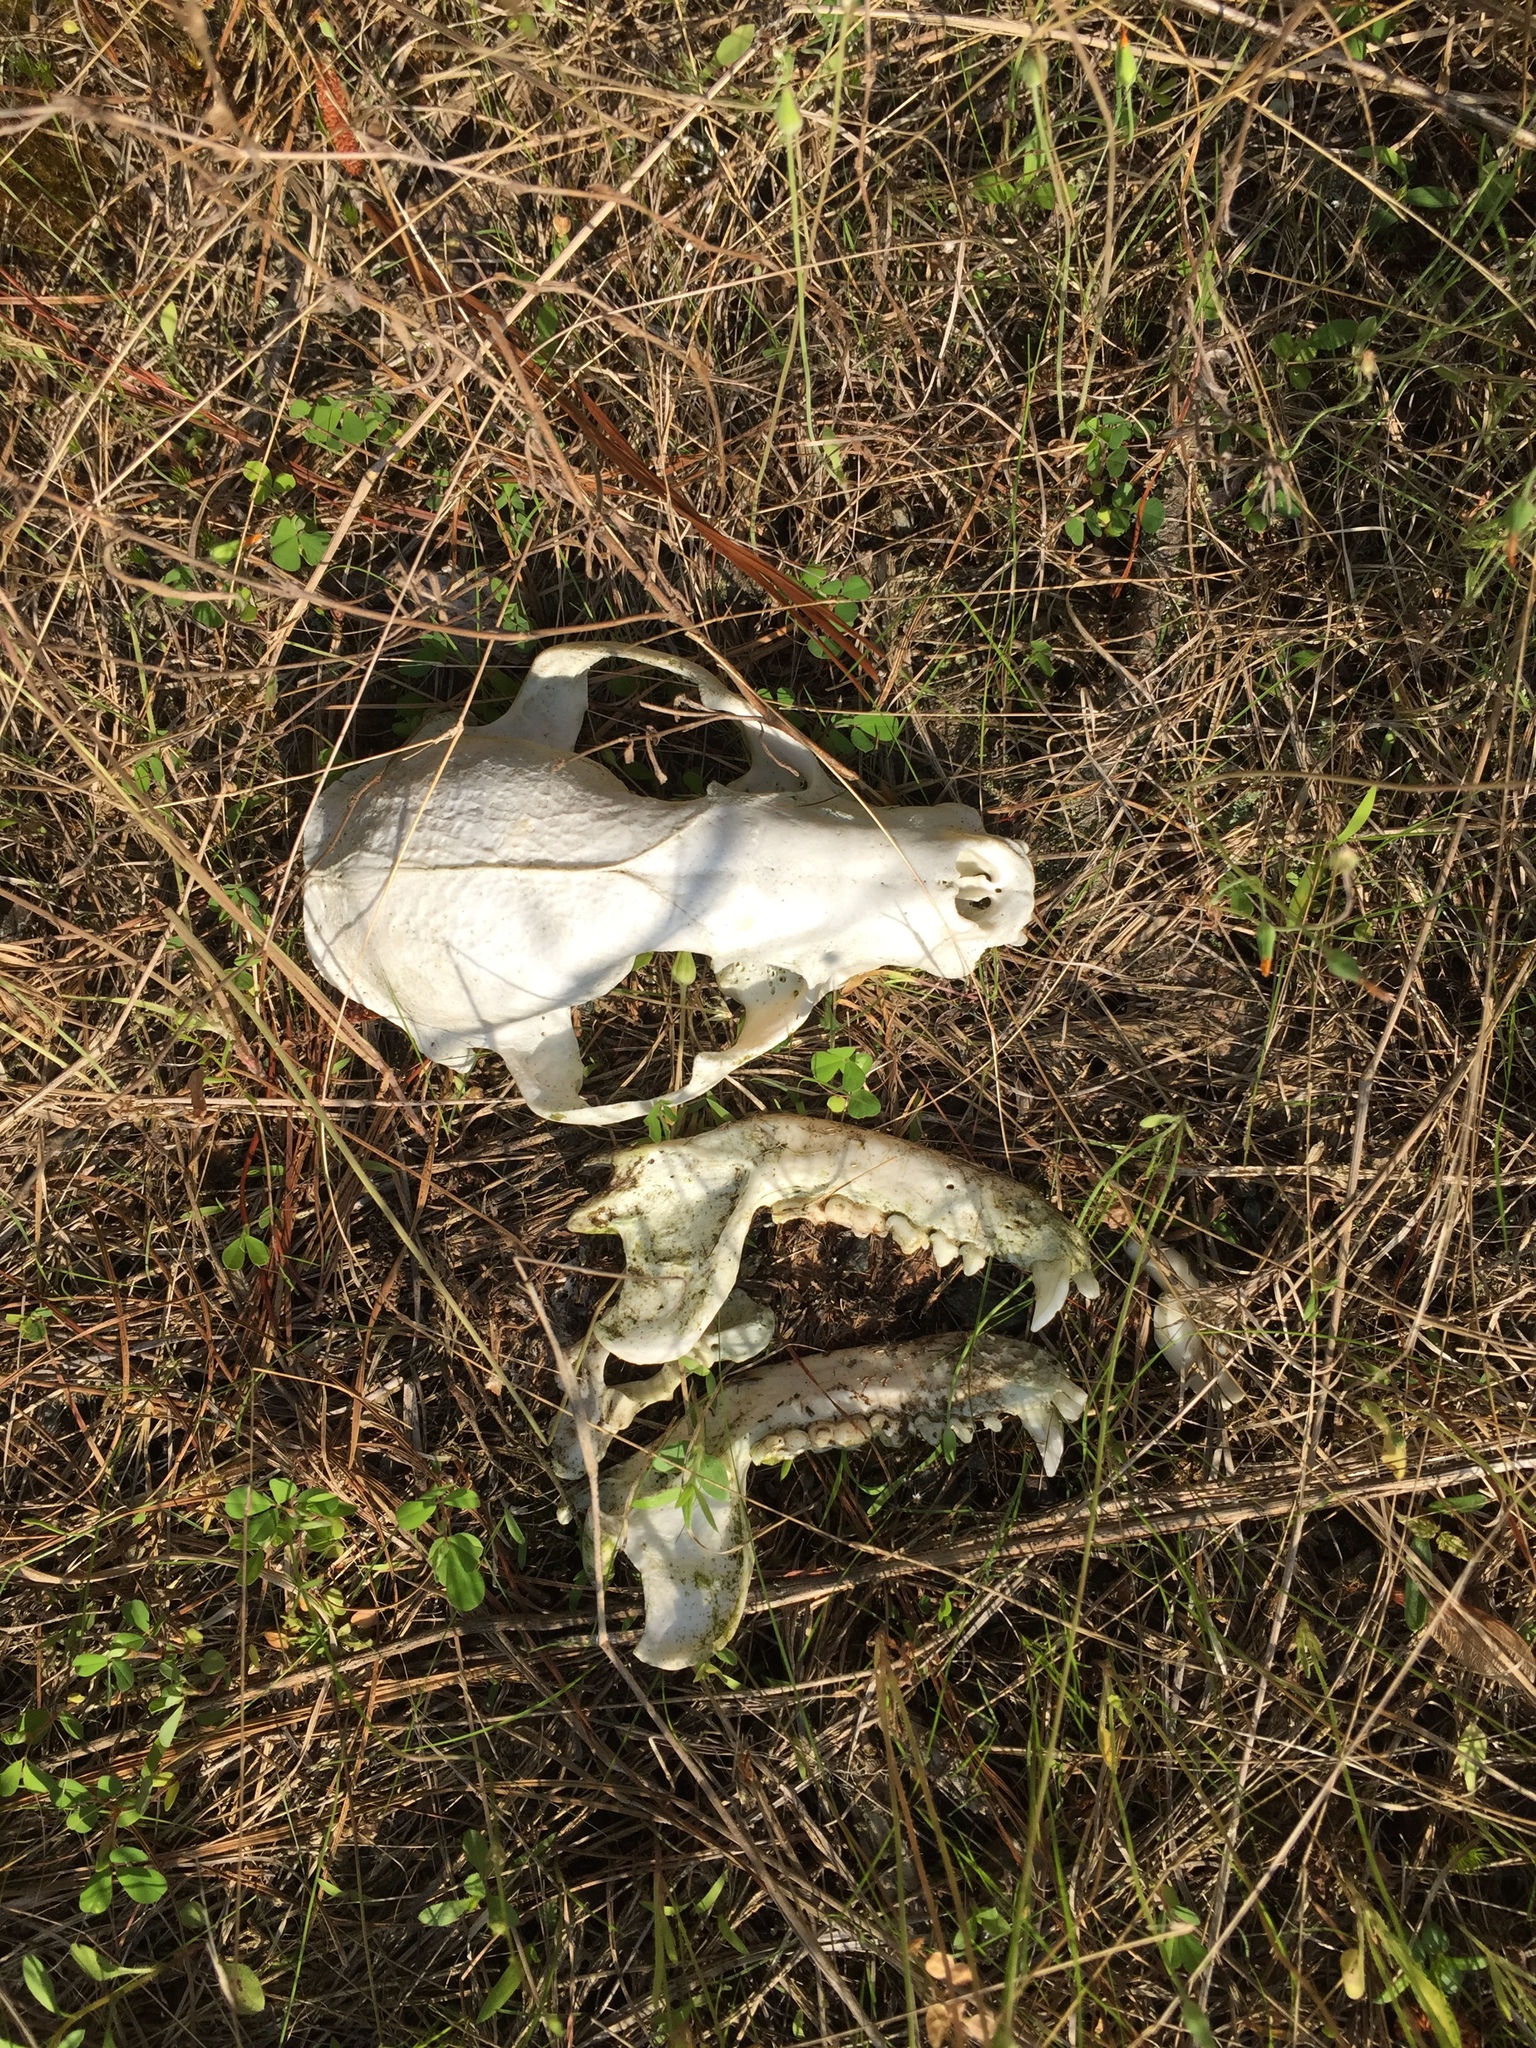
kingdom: Animalia
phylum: Chordata
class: Mammalia
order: Carnivora
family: Procyonidae
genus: Procyon
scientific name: Procyon lotor
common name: Raccoon
